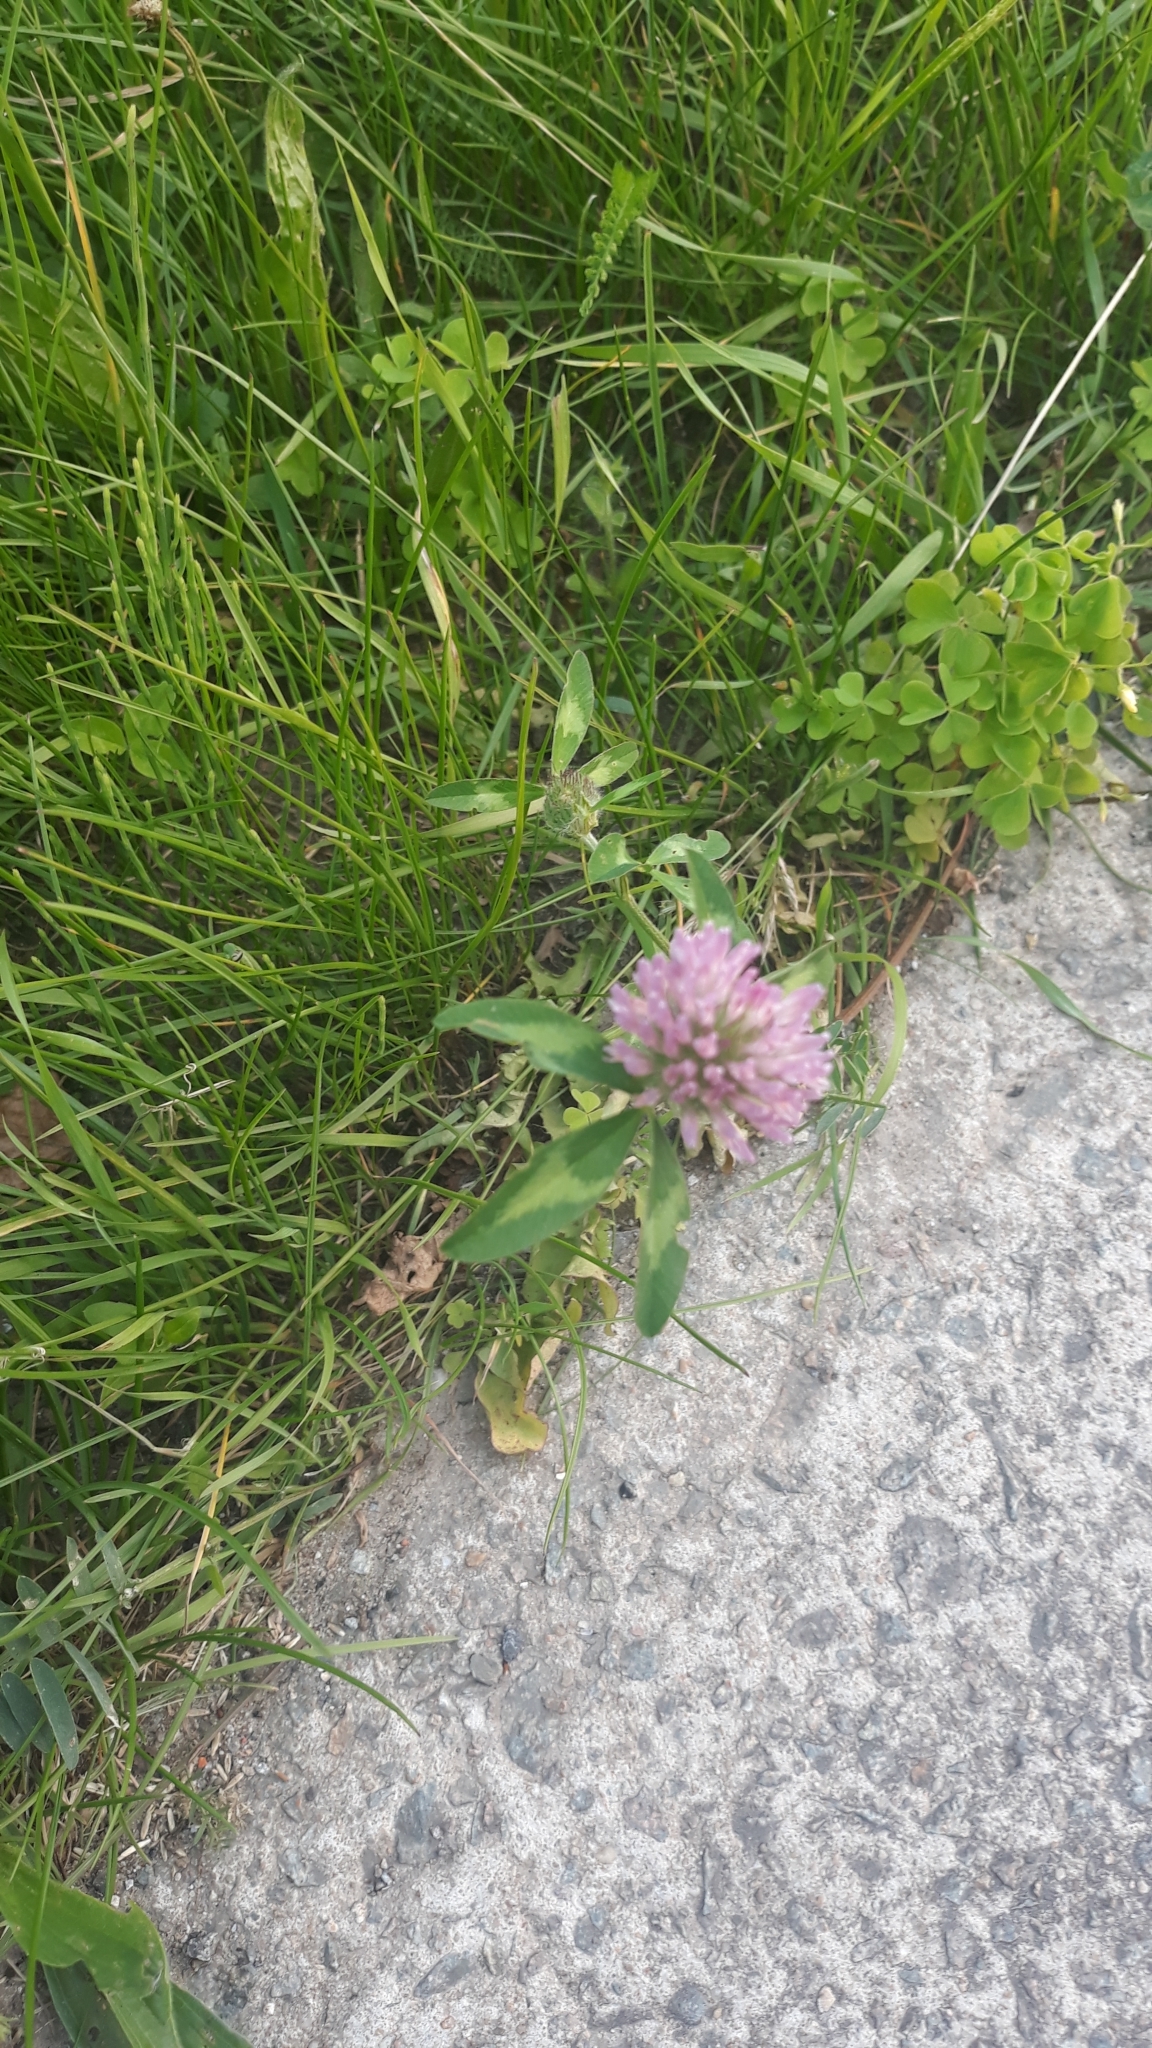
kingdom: Plantae
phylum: Tracheophyta
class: Magnoliopsida
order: Fabales
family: Fabaceae
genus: Trifolium
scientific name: Trifolium pratense
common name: Red clover
